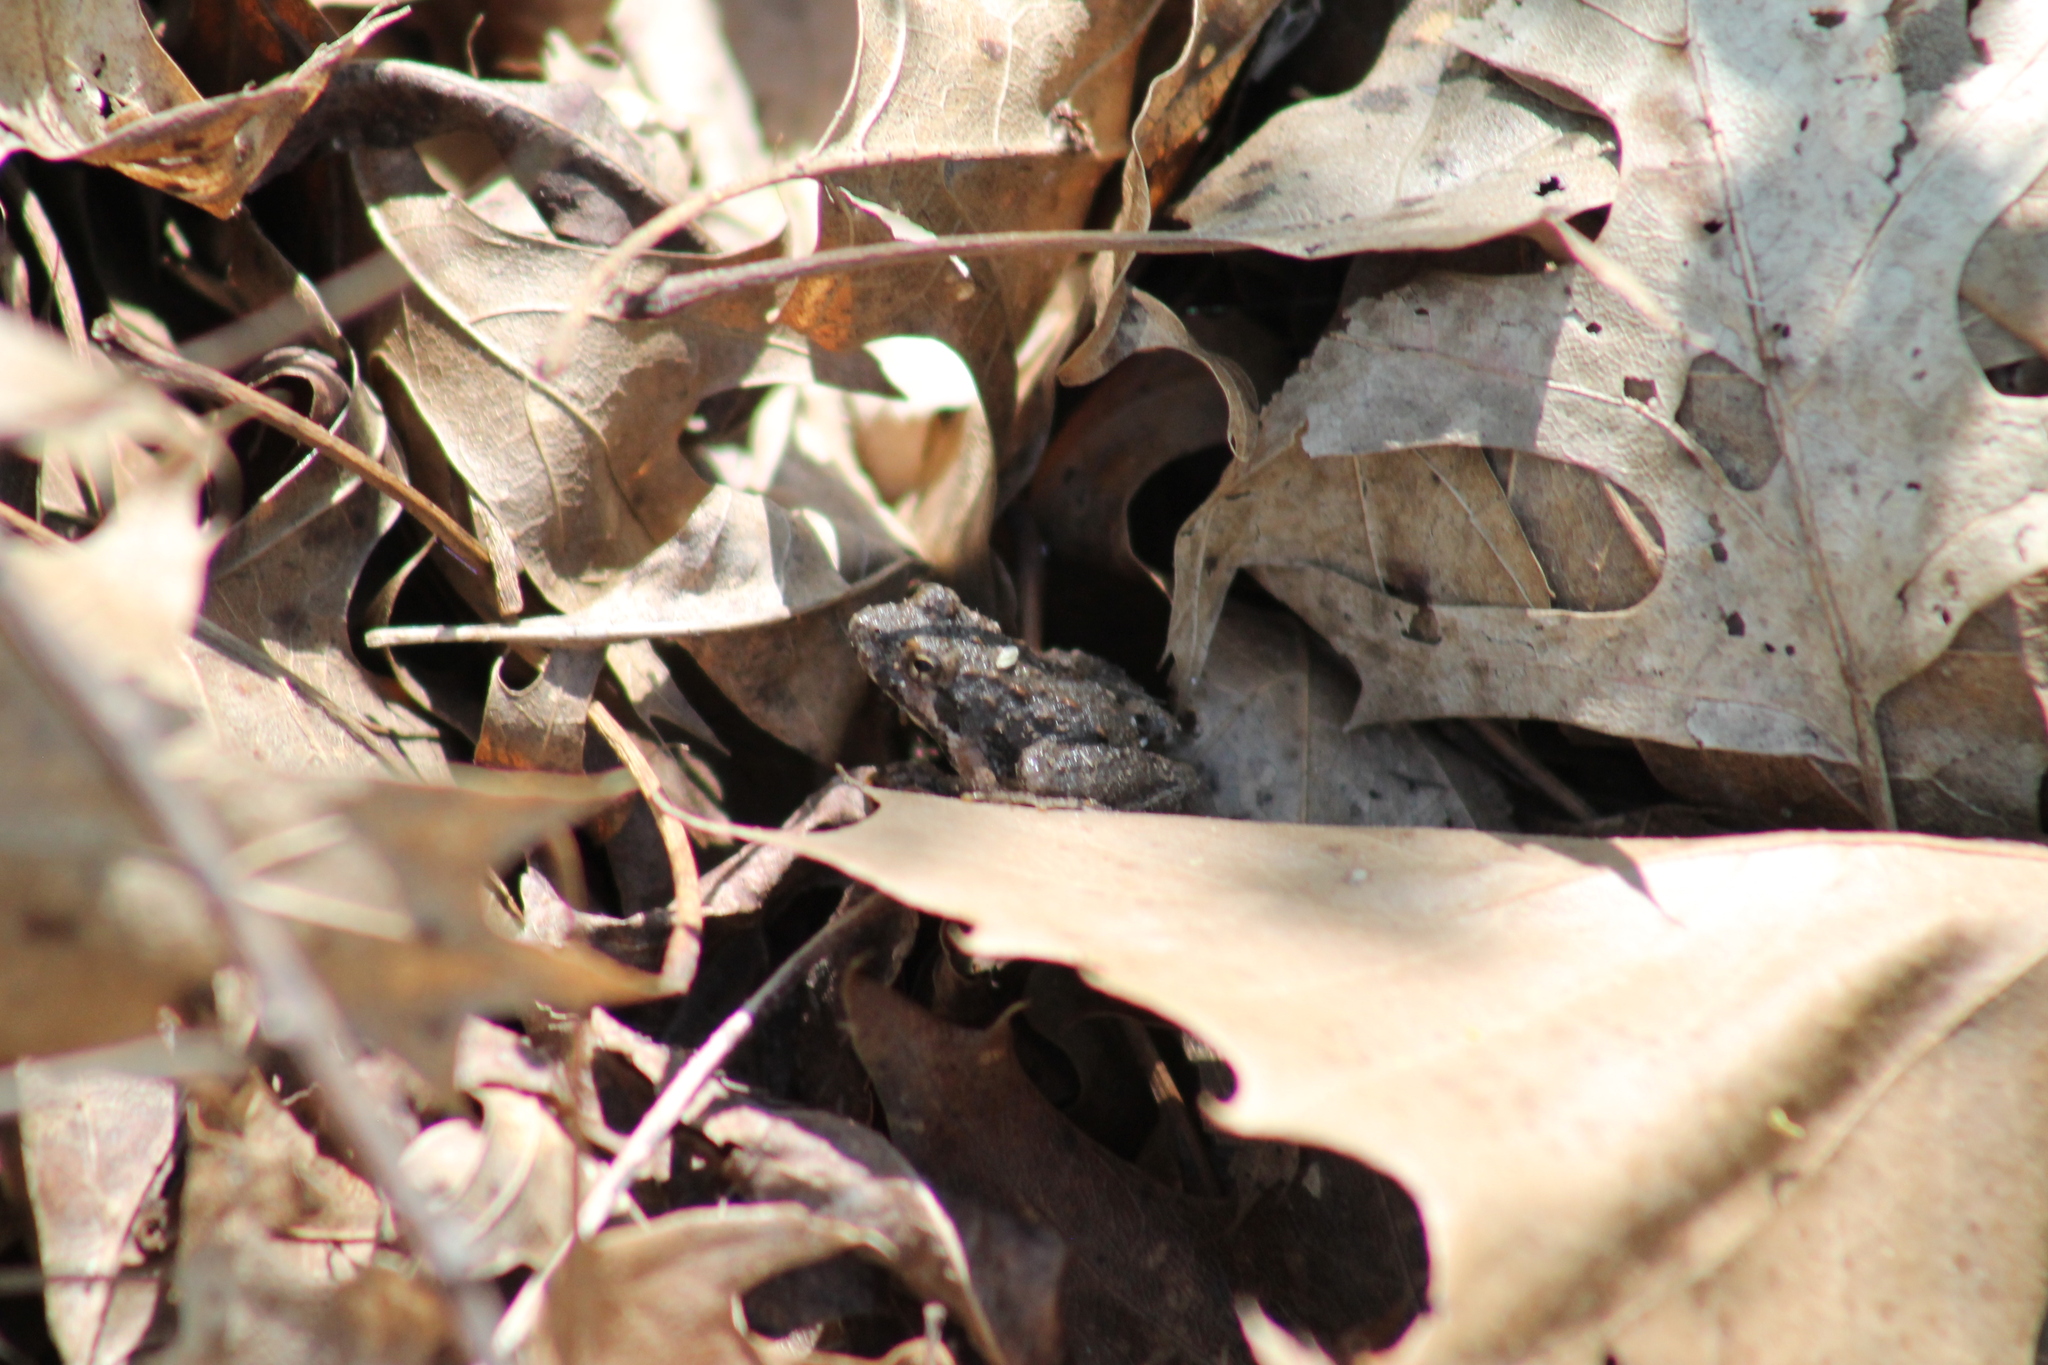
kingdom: Animalia
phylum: Chordata
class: Amphibia
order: Anura
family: Hylidae
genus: Acris
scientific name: Acris crepitans
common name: Northern cricket frog
